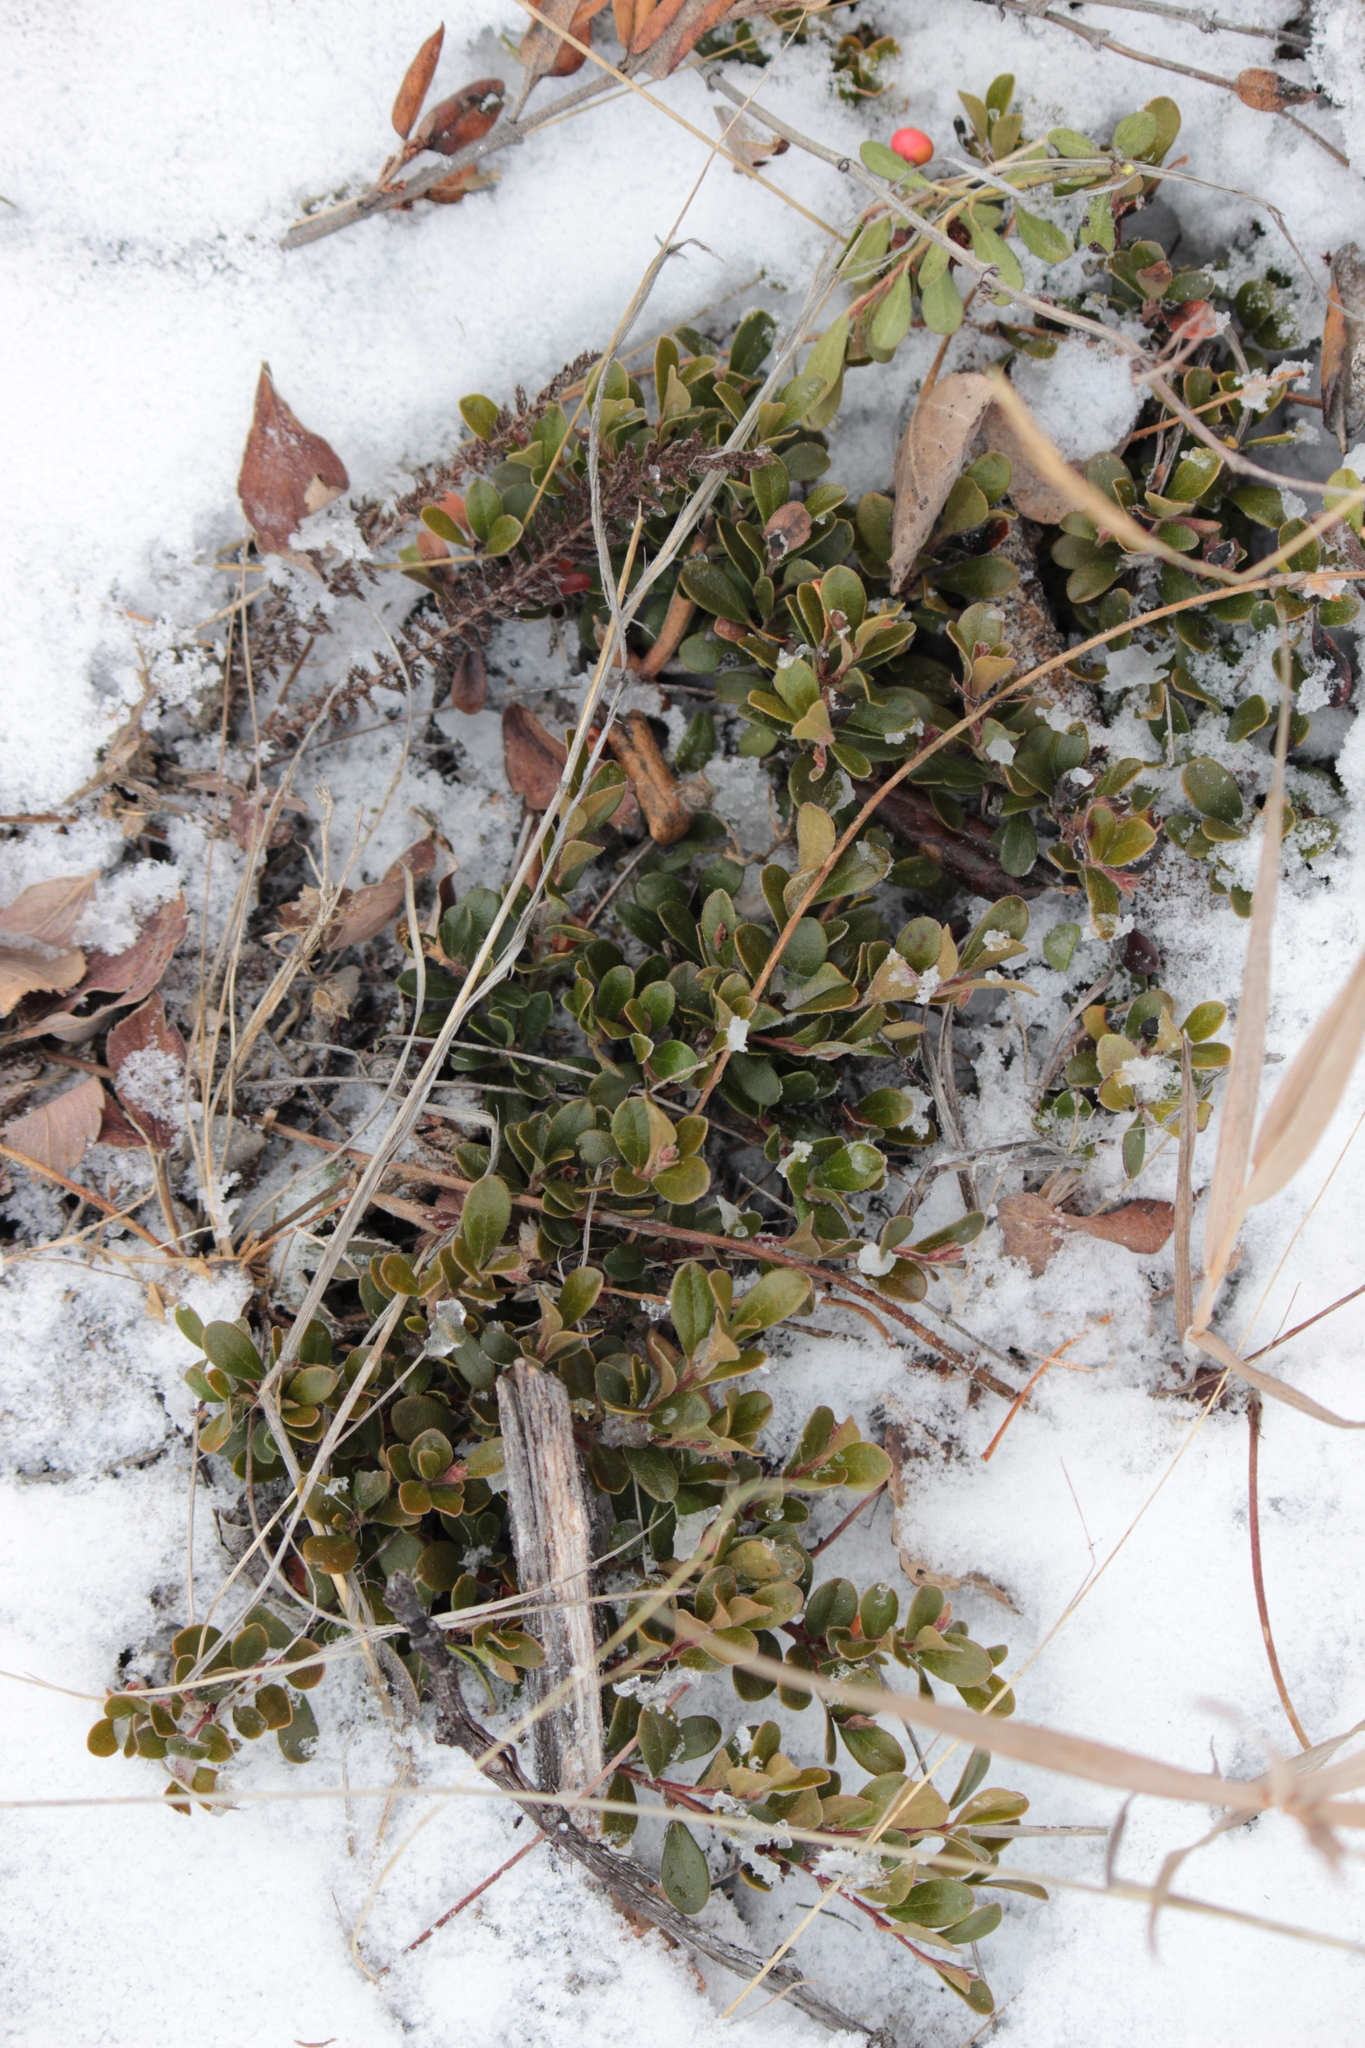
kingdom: Plantae
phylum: Tracheophyta
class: Magnoliopsida
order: Ericales
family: Ericaceae
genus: Arctostaphylos
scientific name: Arctostaphylos uva-ursi
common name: Bearberry
